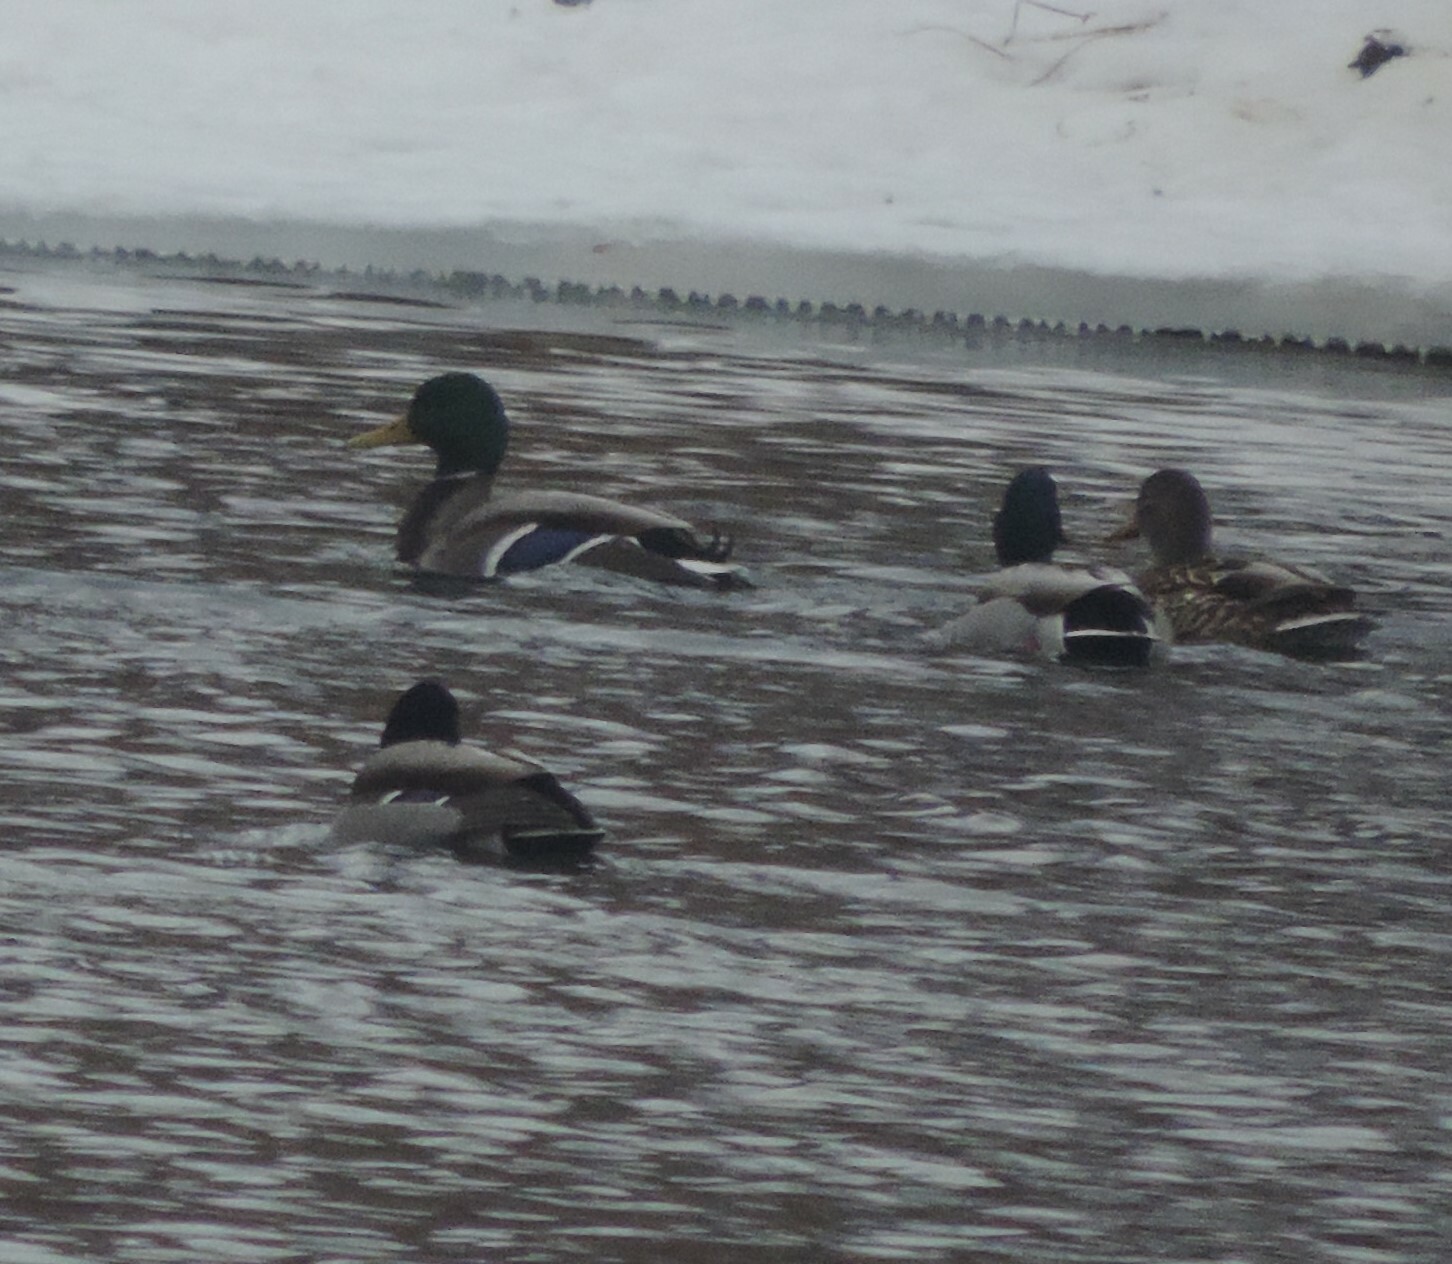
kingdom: Animalia
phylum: Chordata
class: Aves
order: Anseriformes
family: Anatidae
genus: Anas
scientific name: Anas platyrhynchos
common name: Mallard
